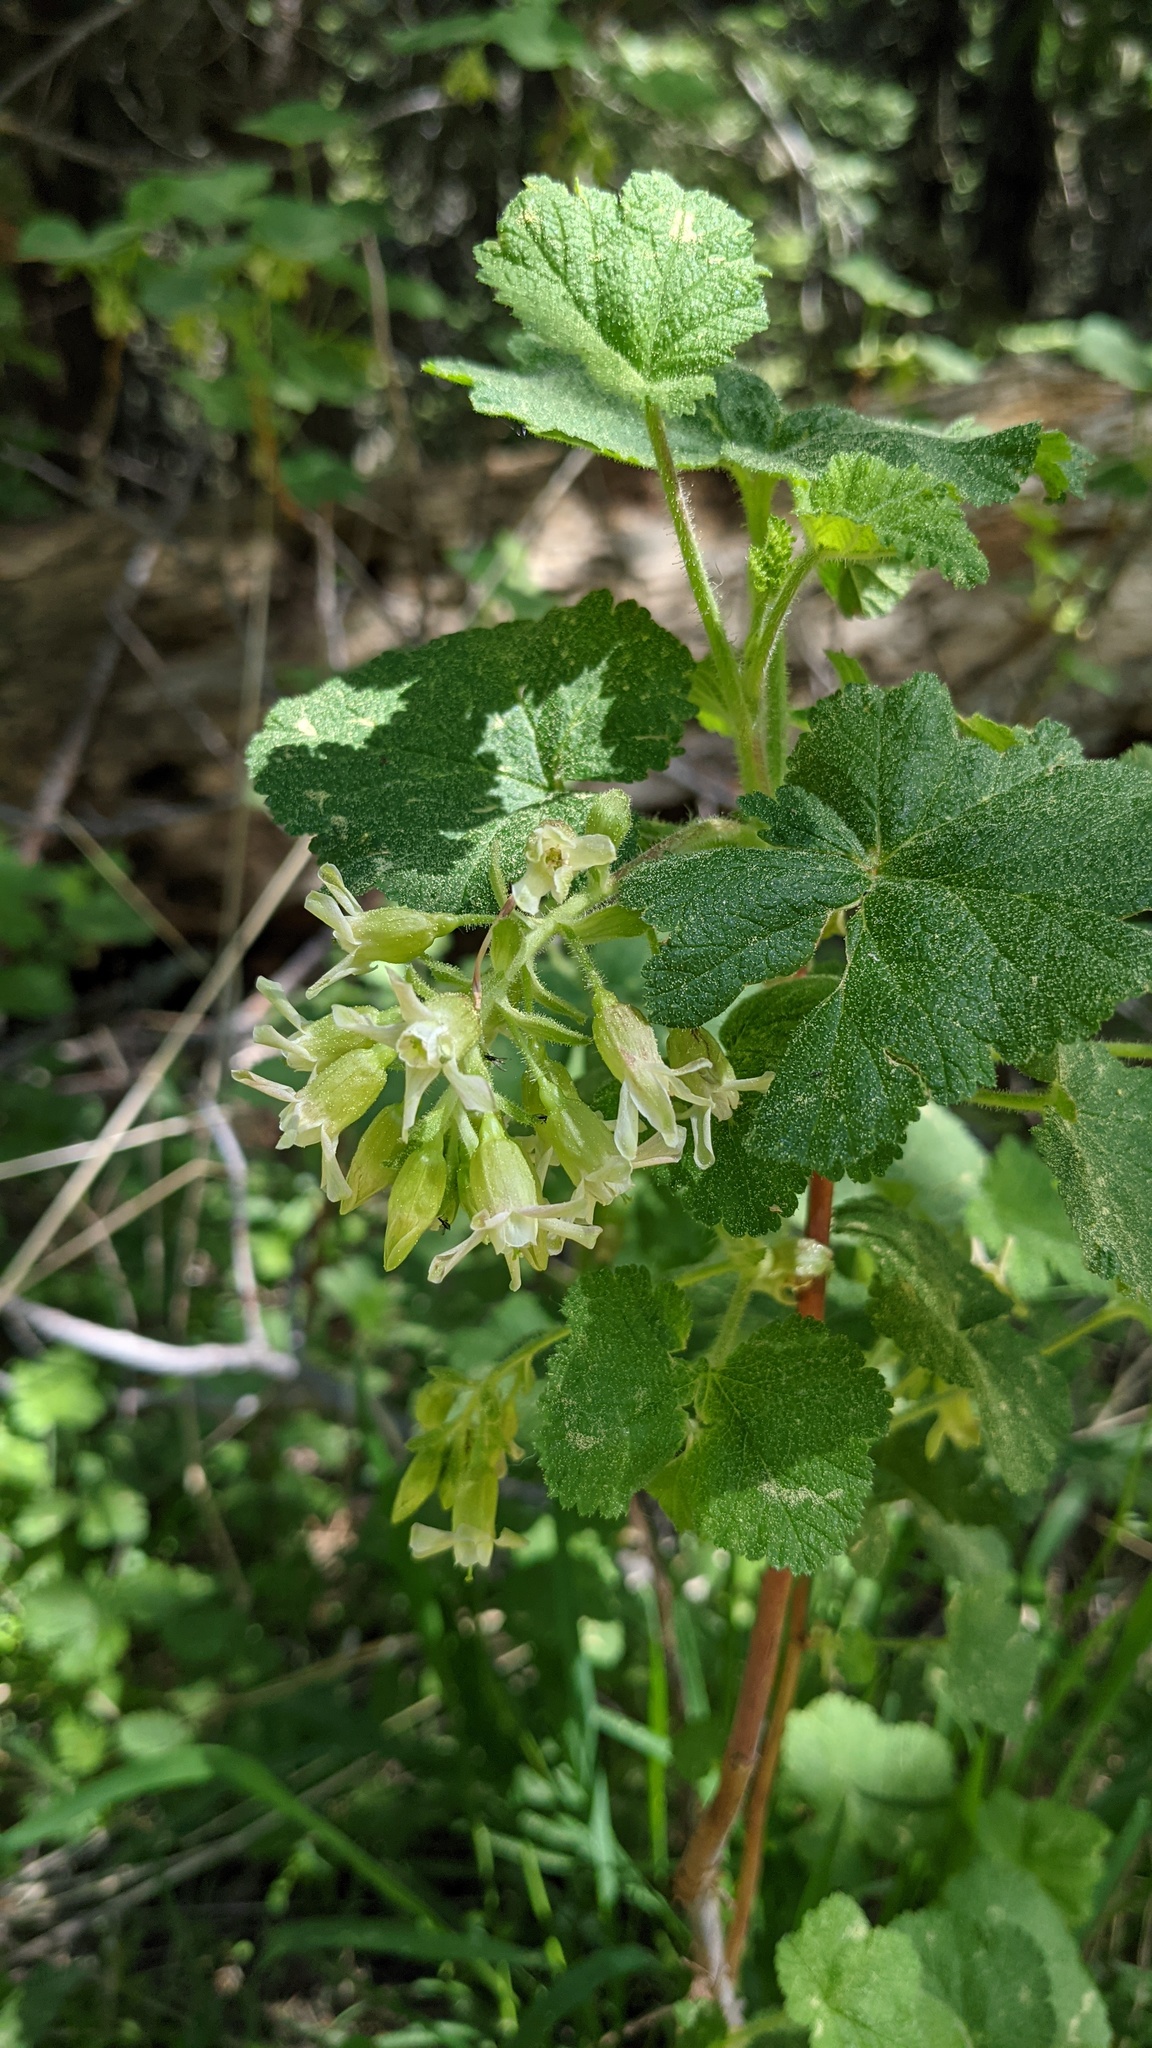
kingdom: Plantae
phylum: Tracheophyta
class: Magnoliopsida
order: Saxifragales
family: Grossulariaceae
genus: Ribes
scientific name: Ribes viscosissimum
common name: Sticky currant
